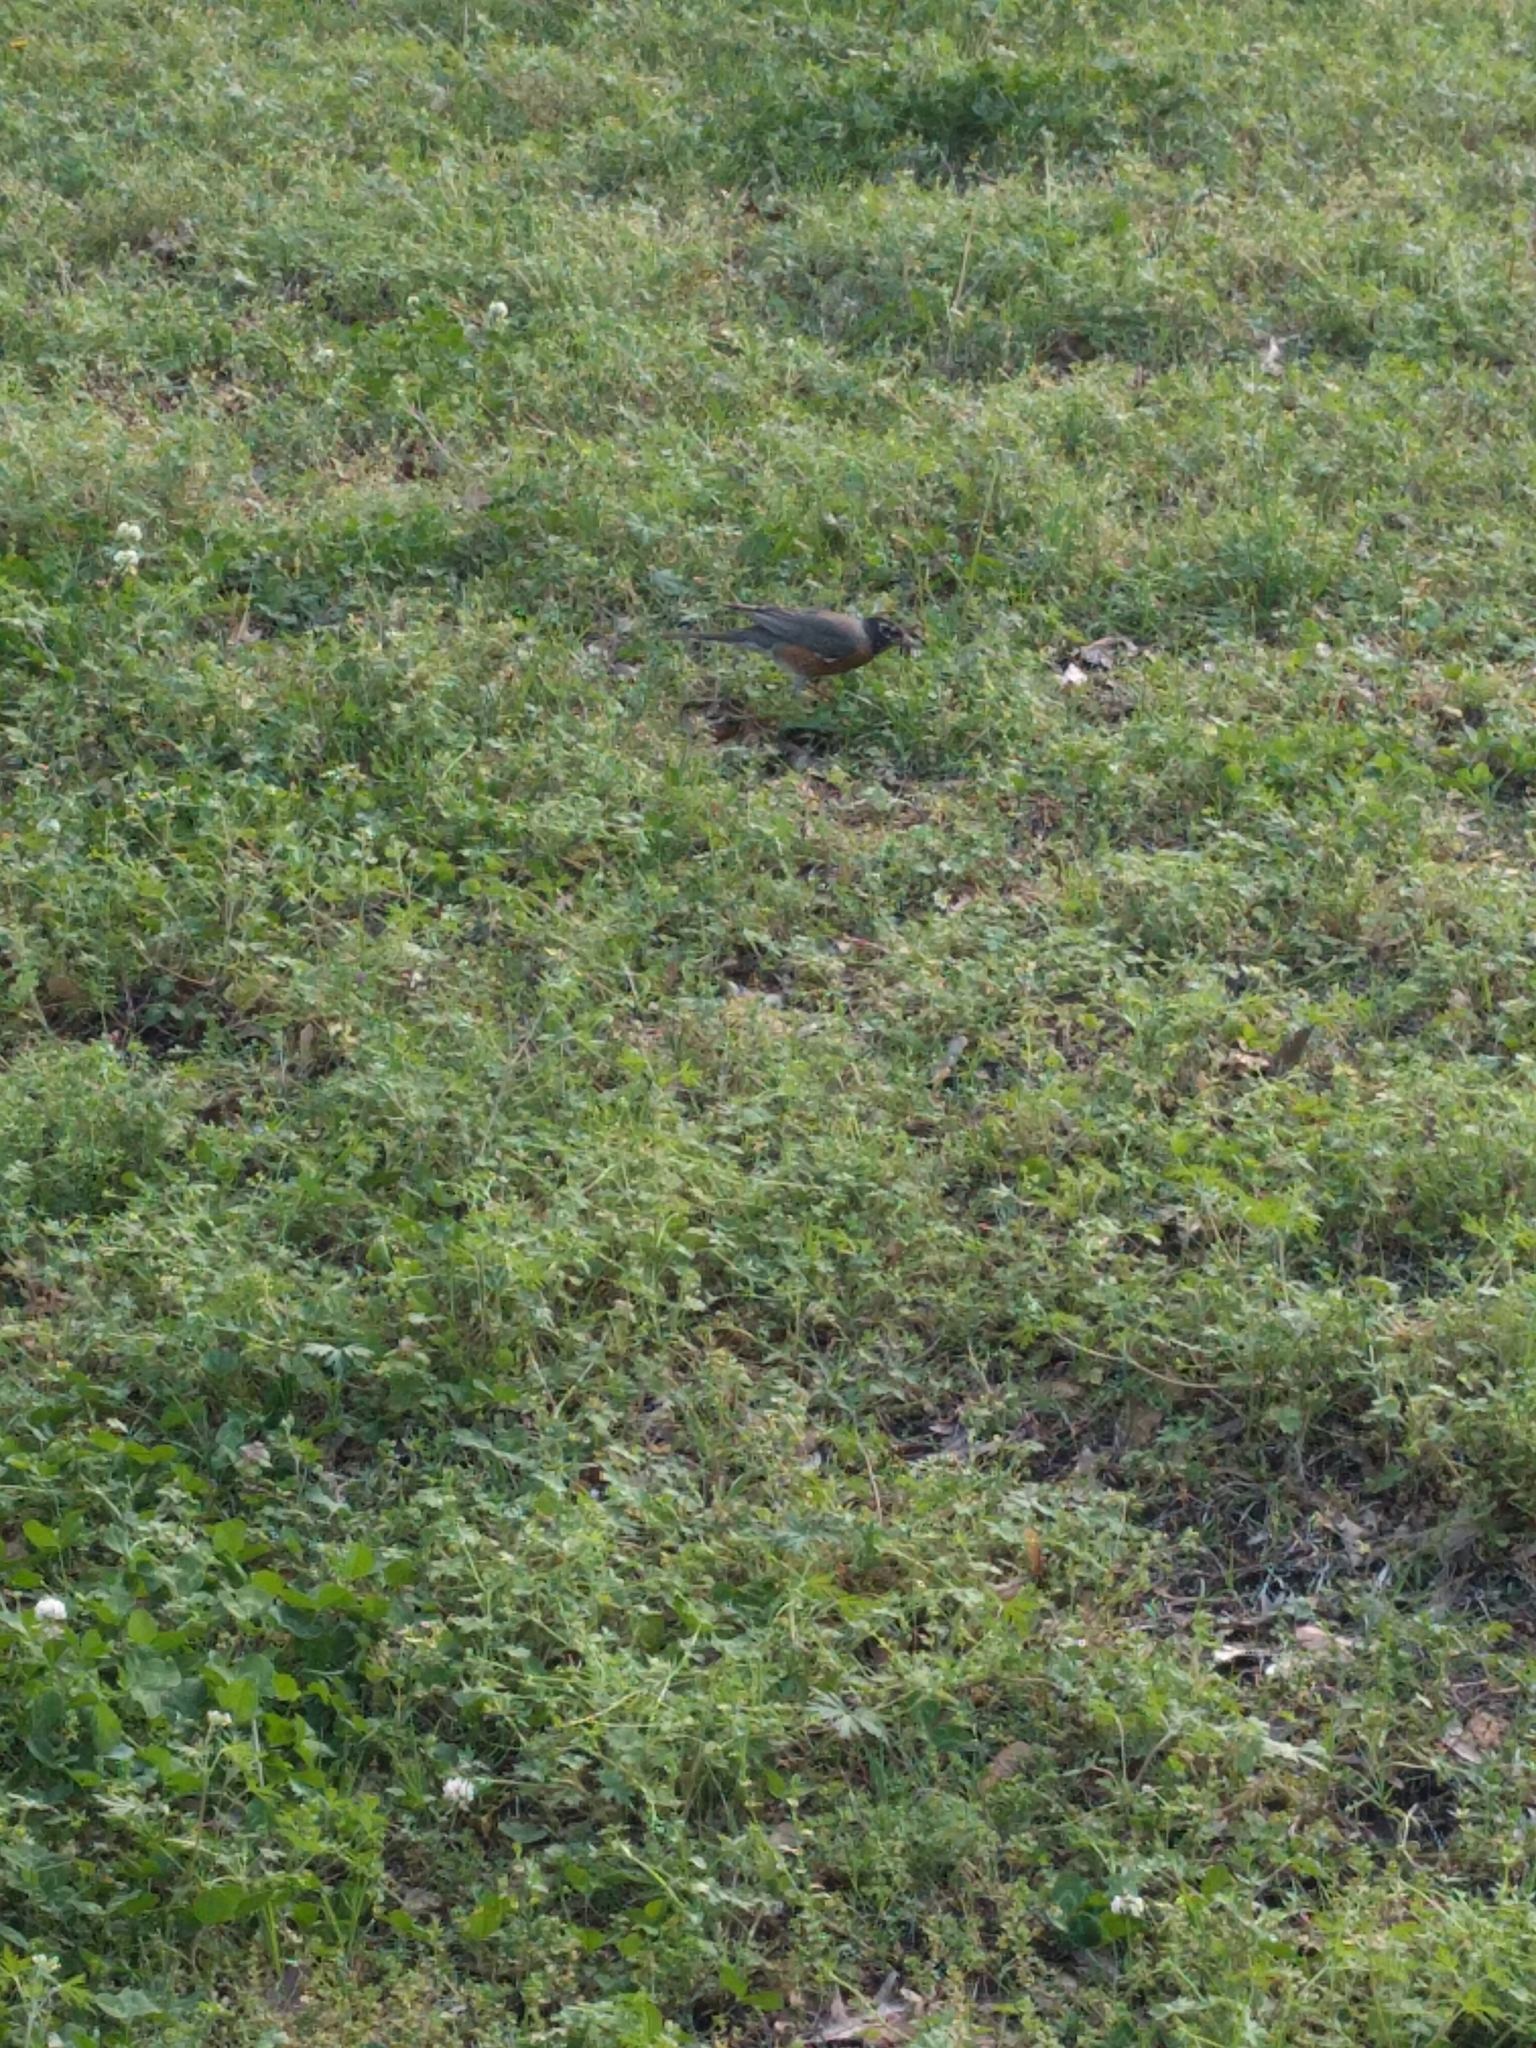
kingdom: Animalia
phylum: Chordata
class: Aves
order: Passeriformes
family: Turdidae
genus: Turdus
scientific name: Turdus migratorius
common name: American robin
